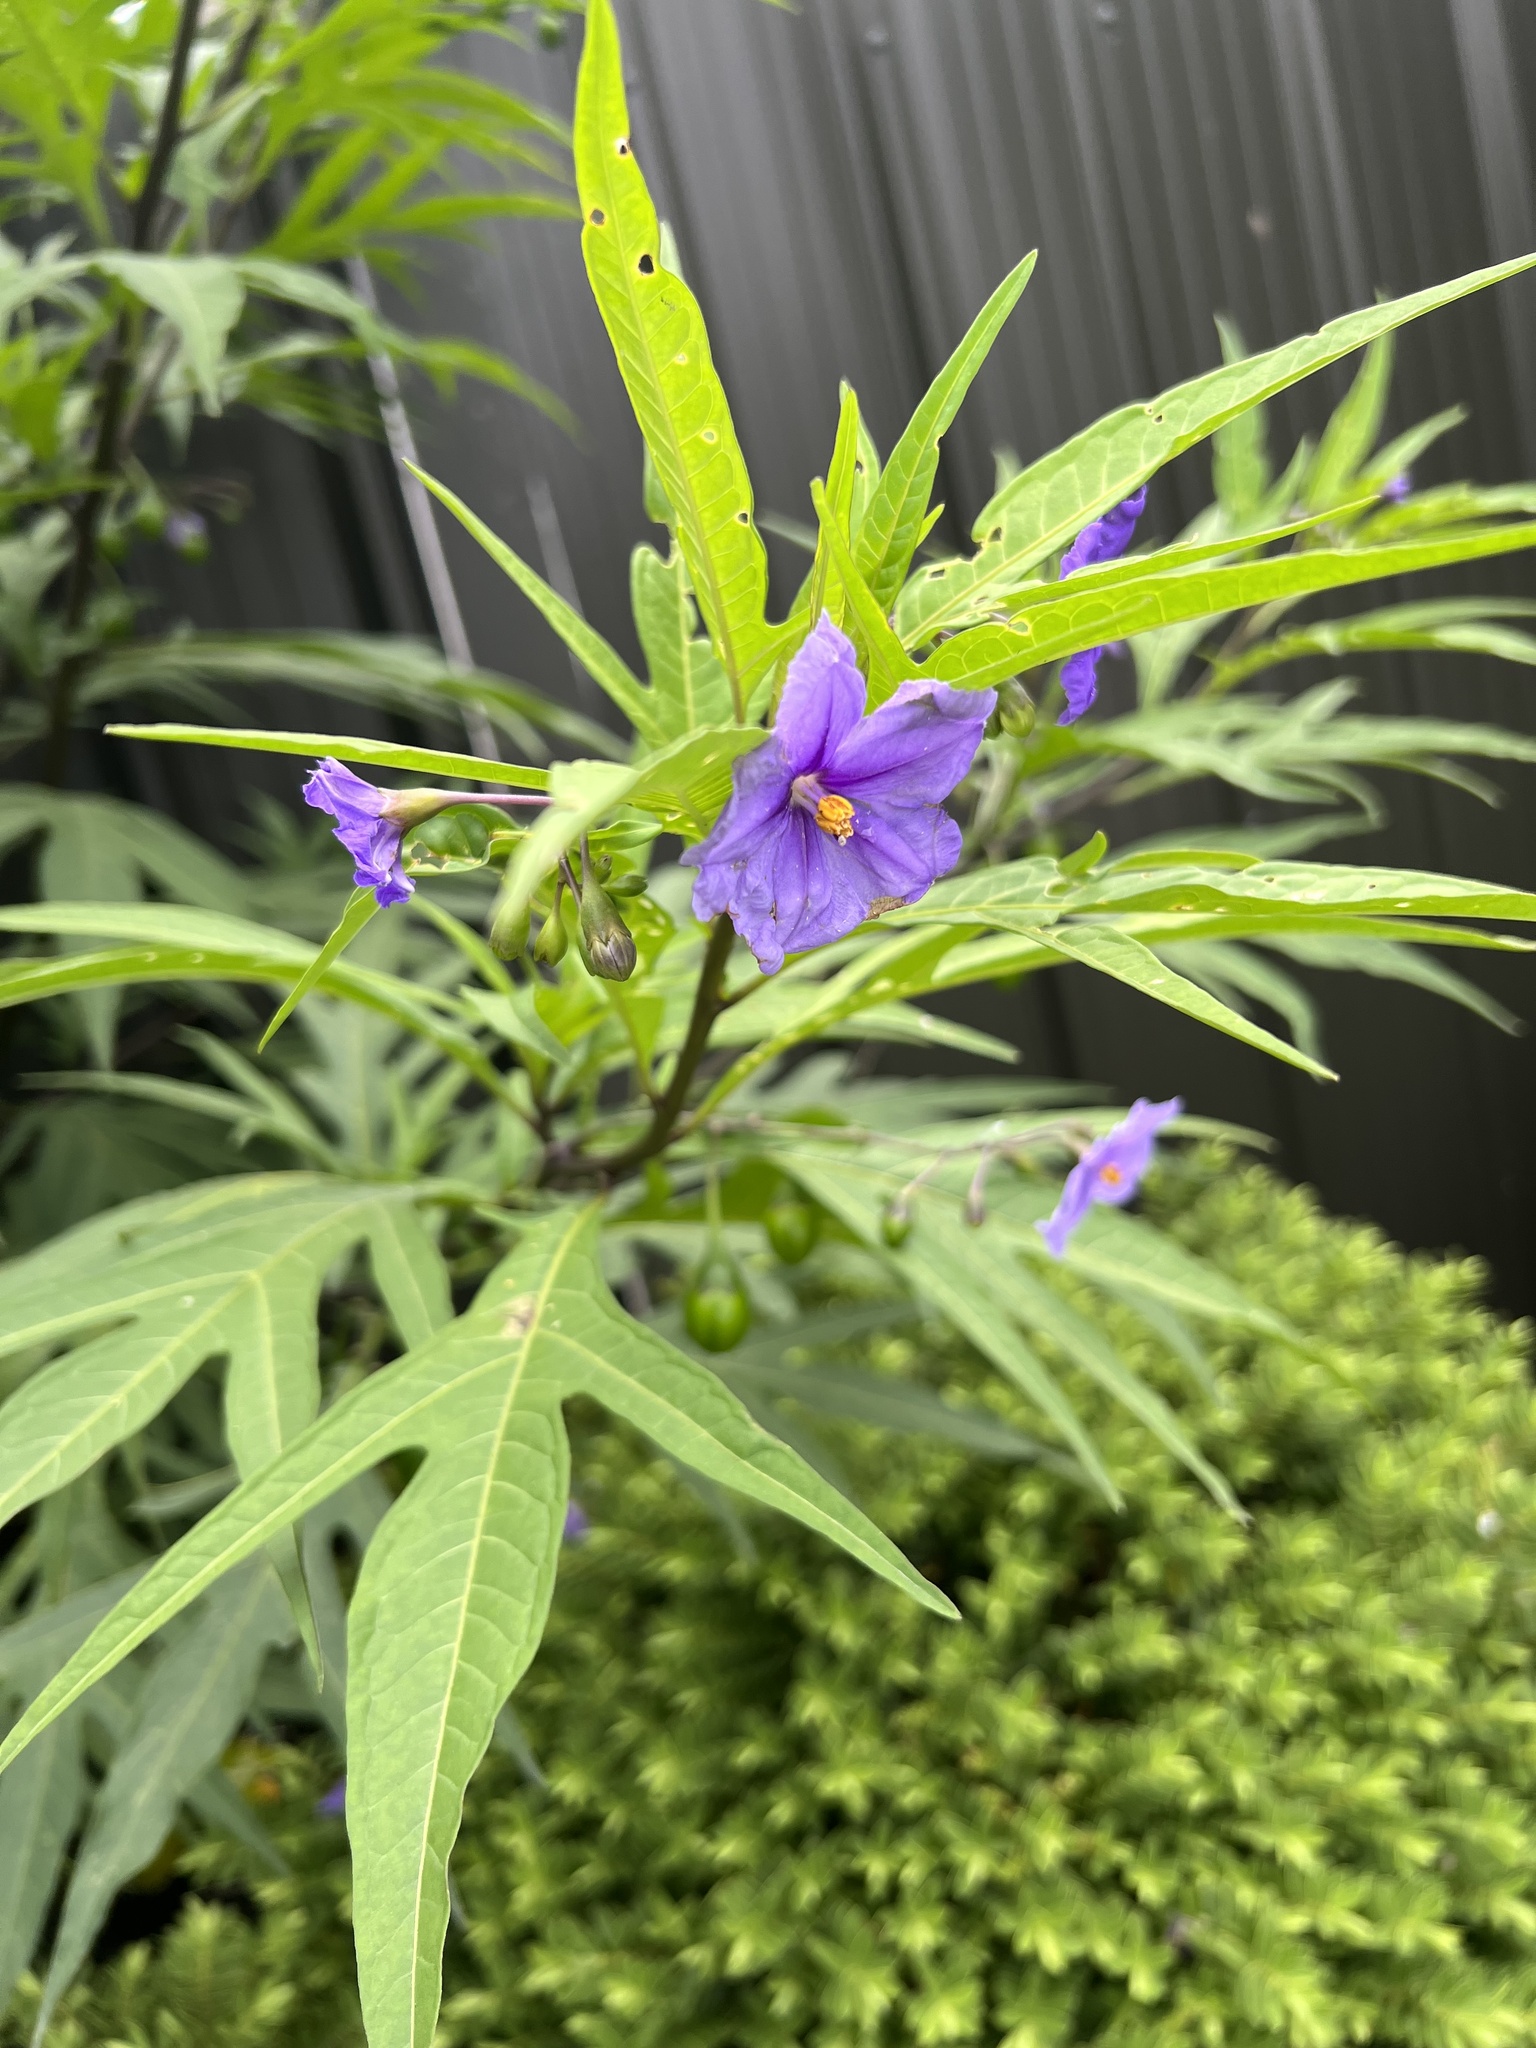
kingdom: Plantae
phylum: Tracheophyta
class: Magnoliopsida
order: Solanales
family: Solanaceae
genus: Solanum
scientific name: Solanum laciniatum
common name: Kangaroo-apple
